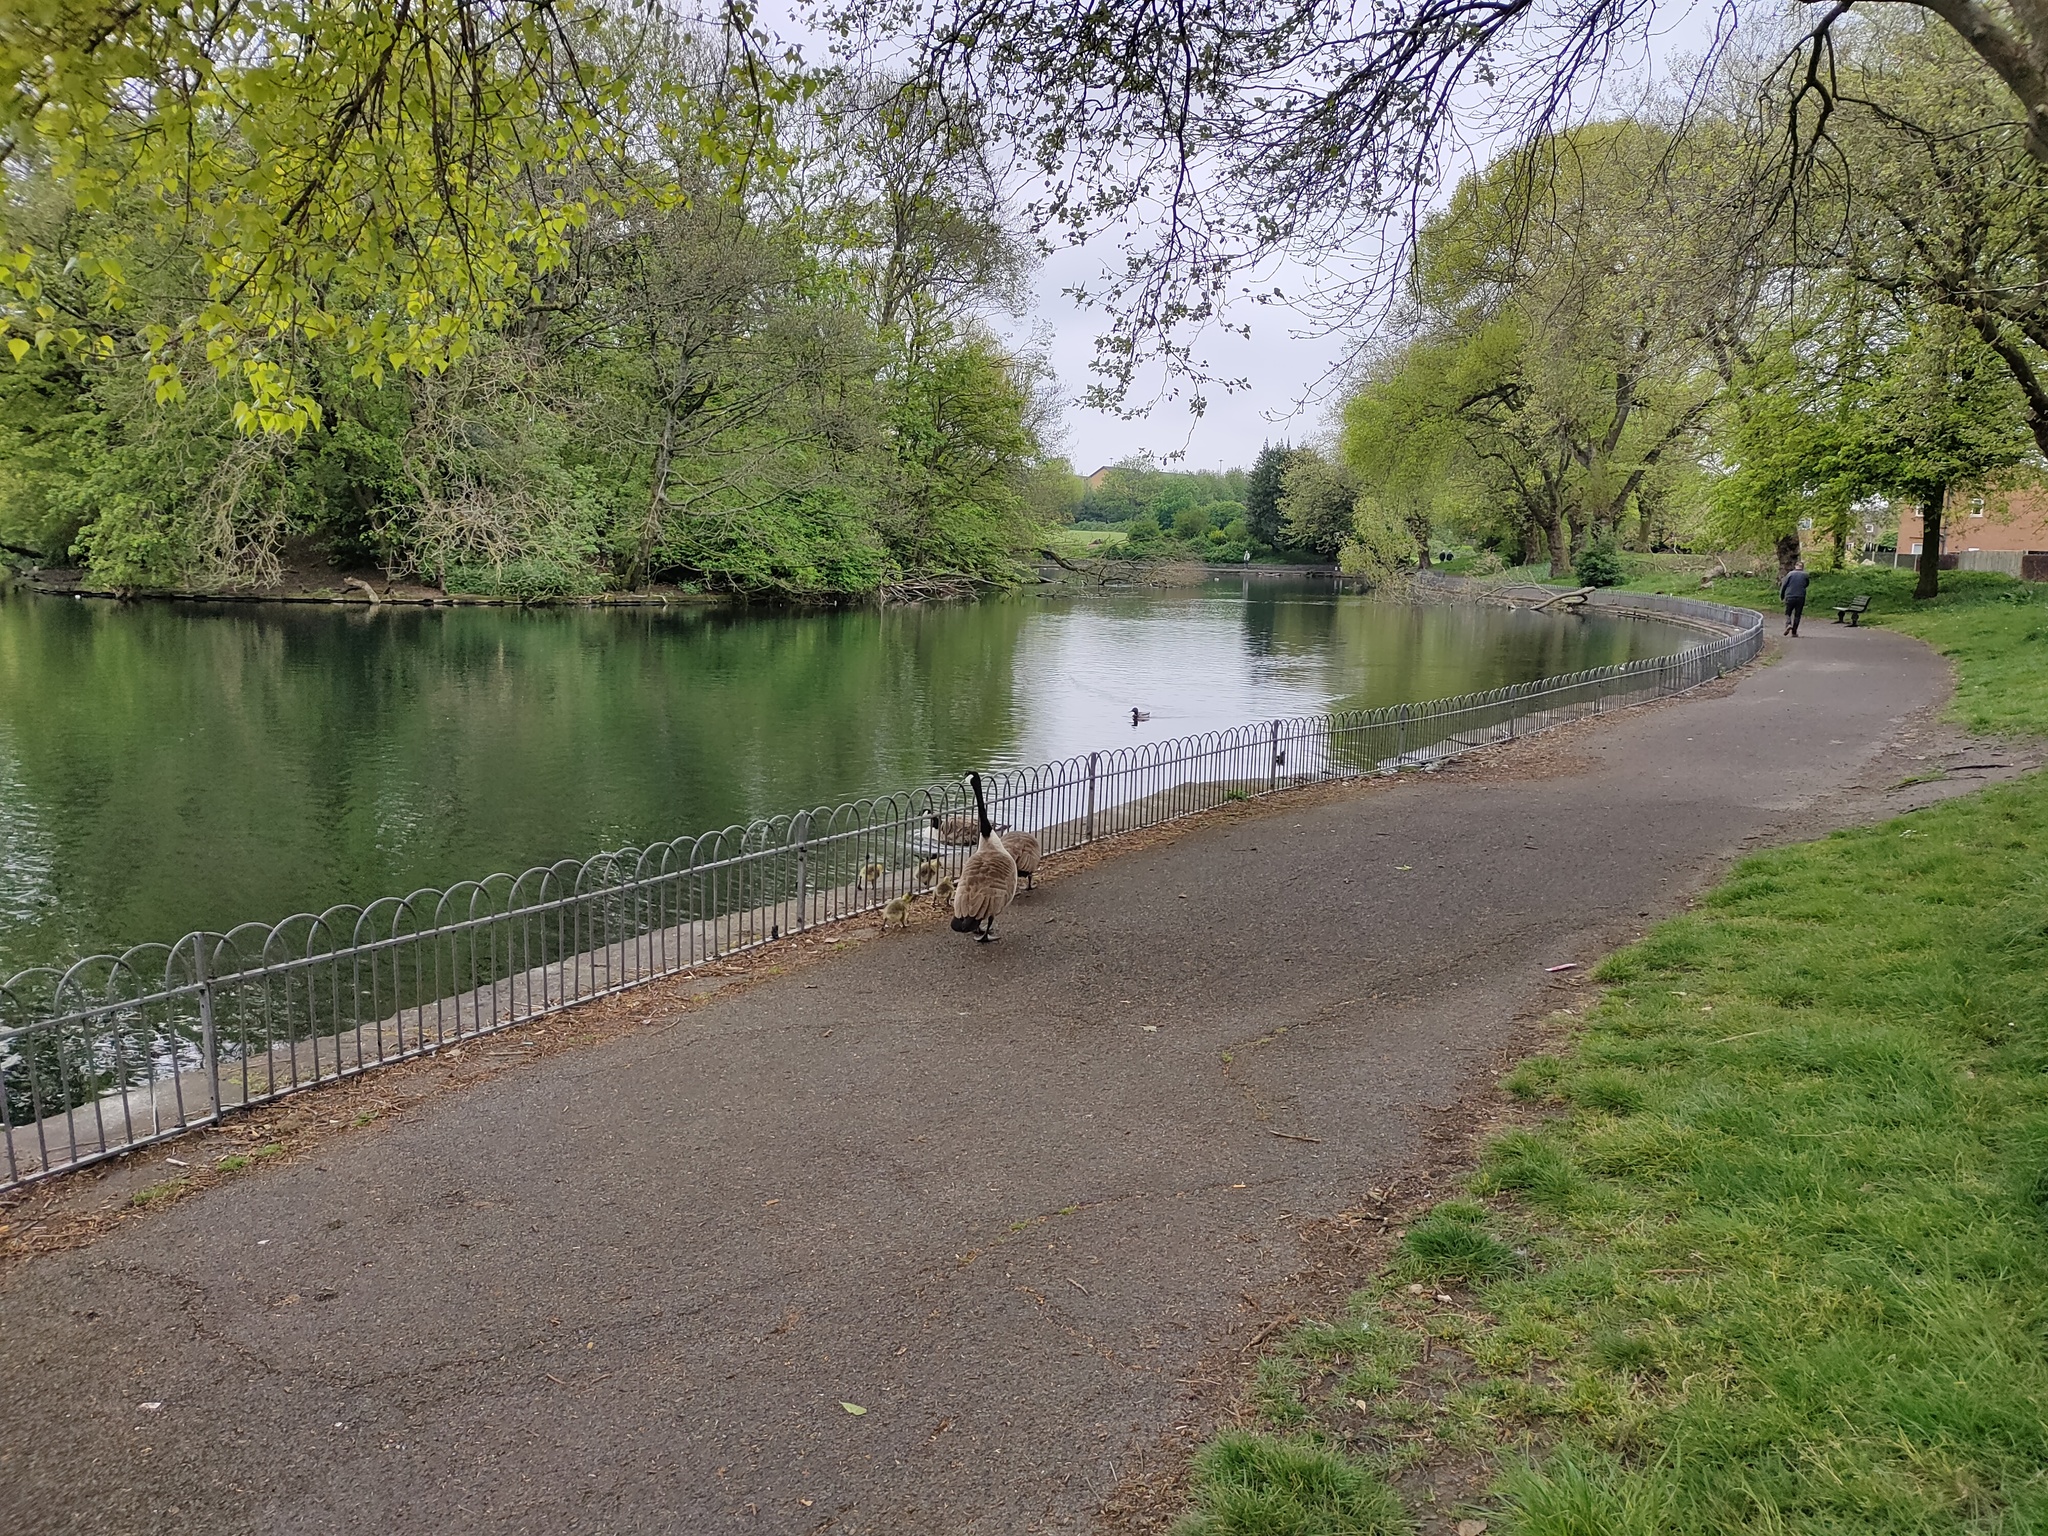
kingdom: Animalia
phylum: Chordata
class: Aves
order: Anseriformes
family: Anatidae
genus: Branta
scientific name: Branta canadensis
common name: Canada goose
